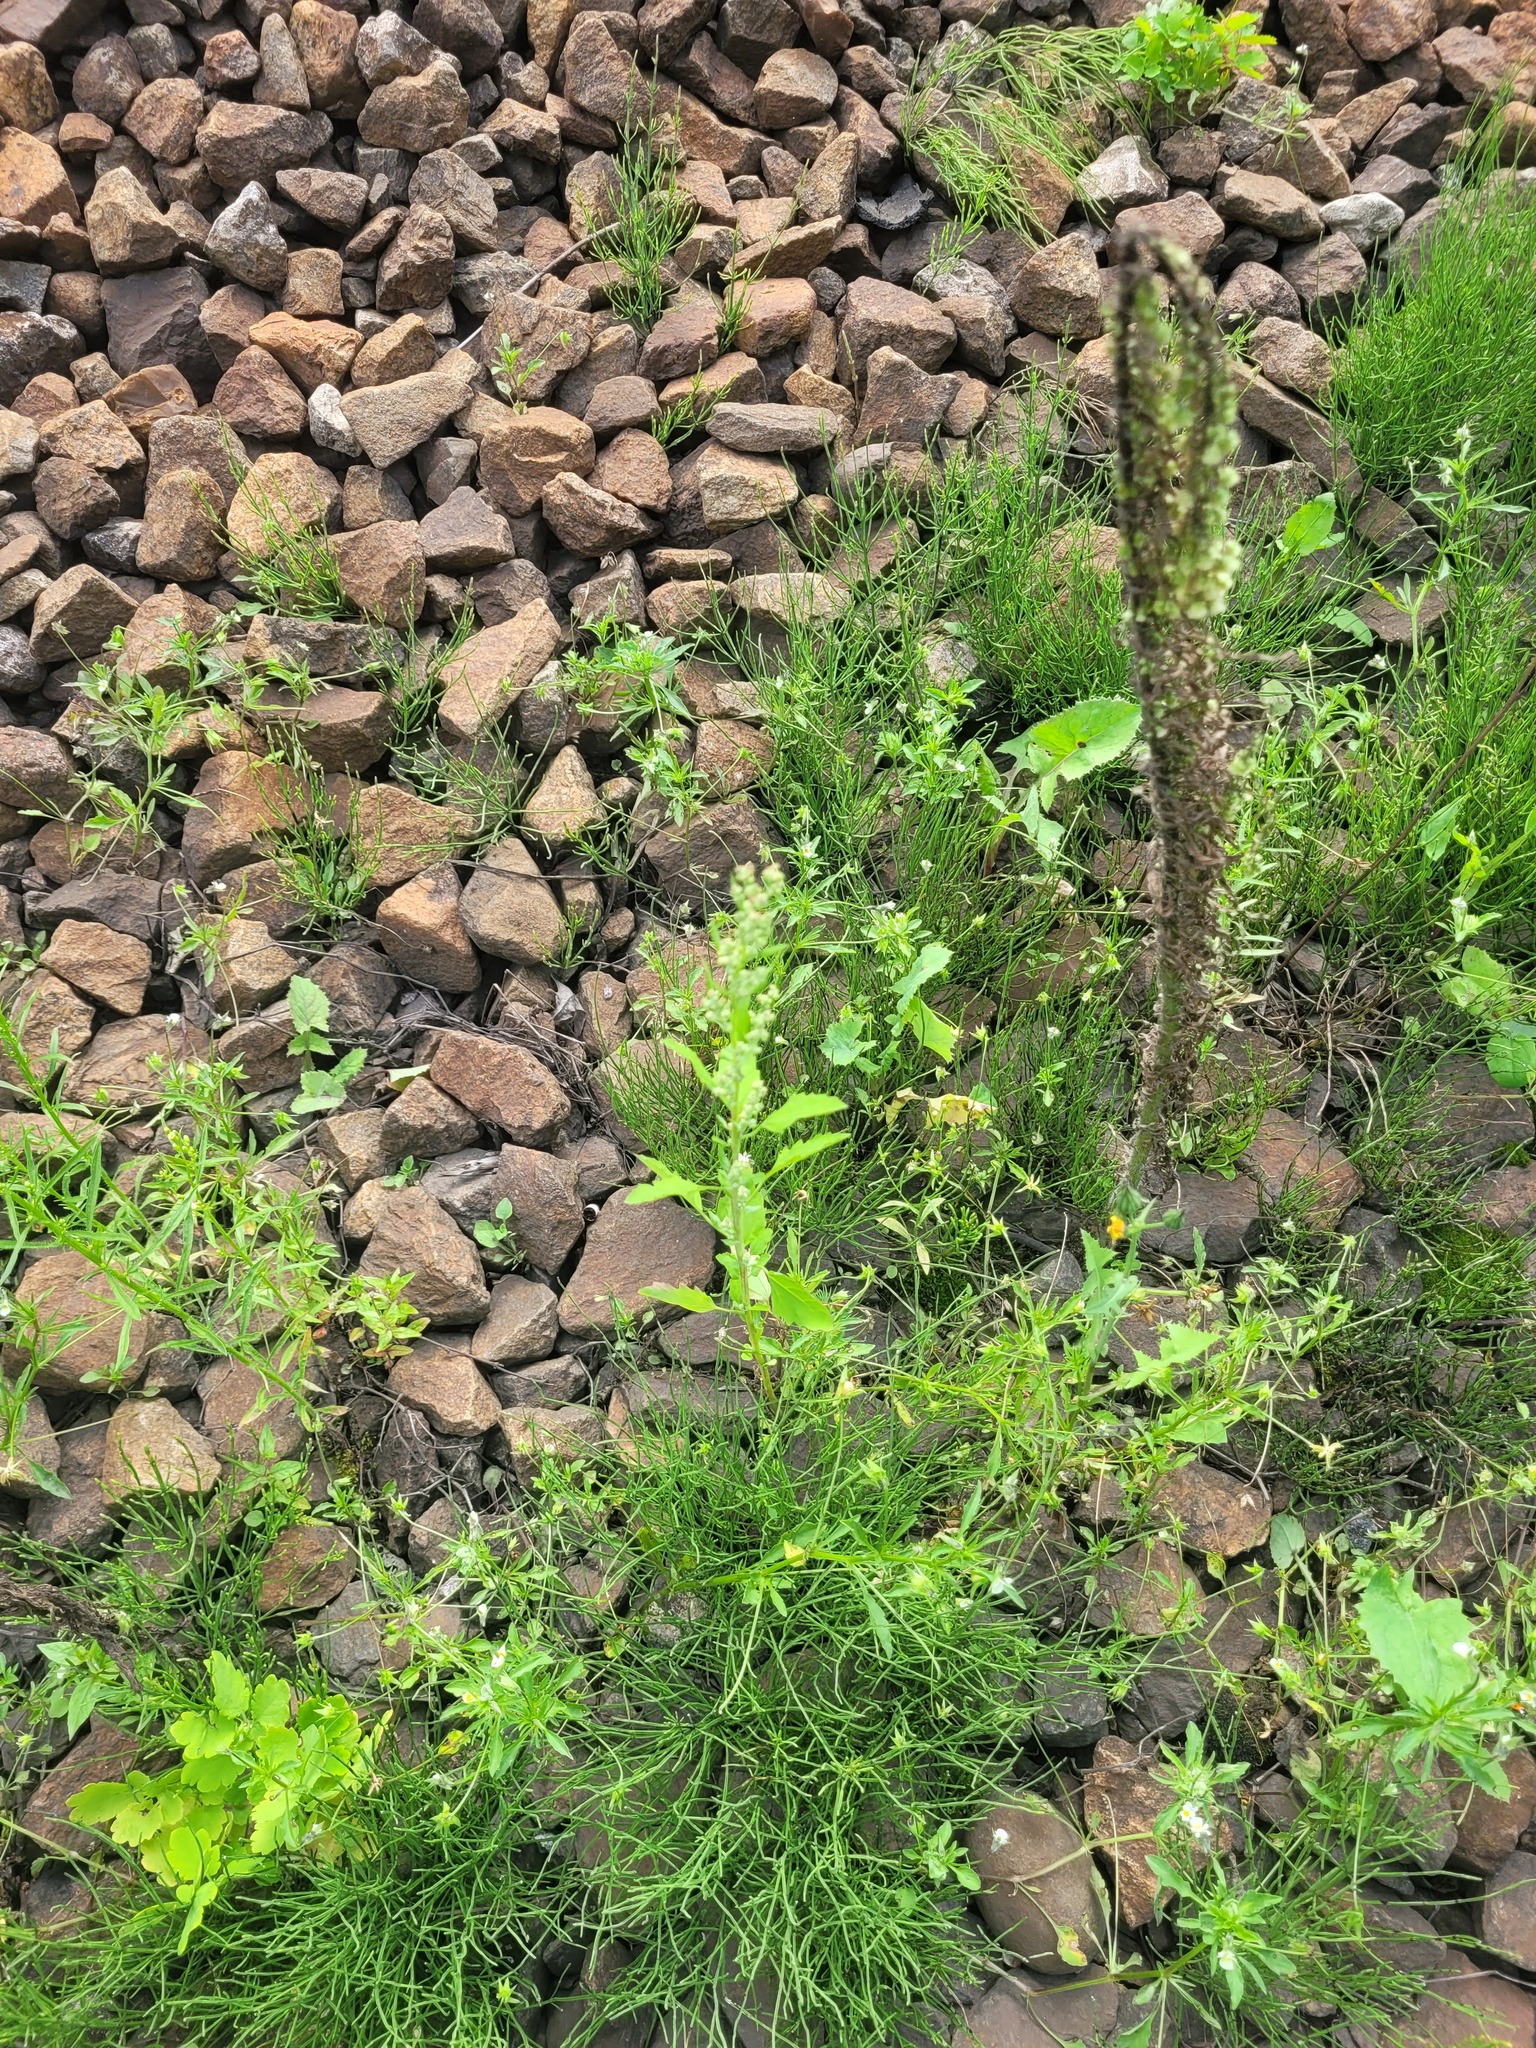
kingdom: Plantae
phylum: Tracheophyta
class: Magnoliopsida
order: Caryophyllales
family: Amaranthaceae
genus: Chenopodium
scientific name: Chenopodium album
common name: Fat-hen
